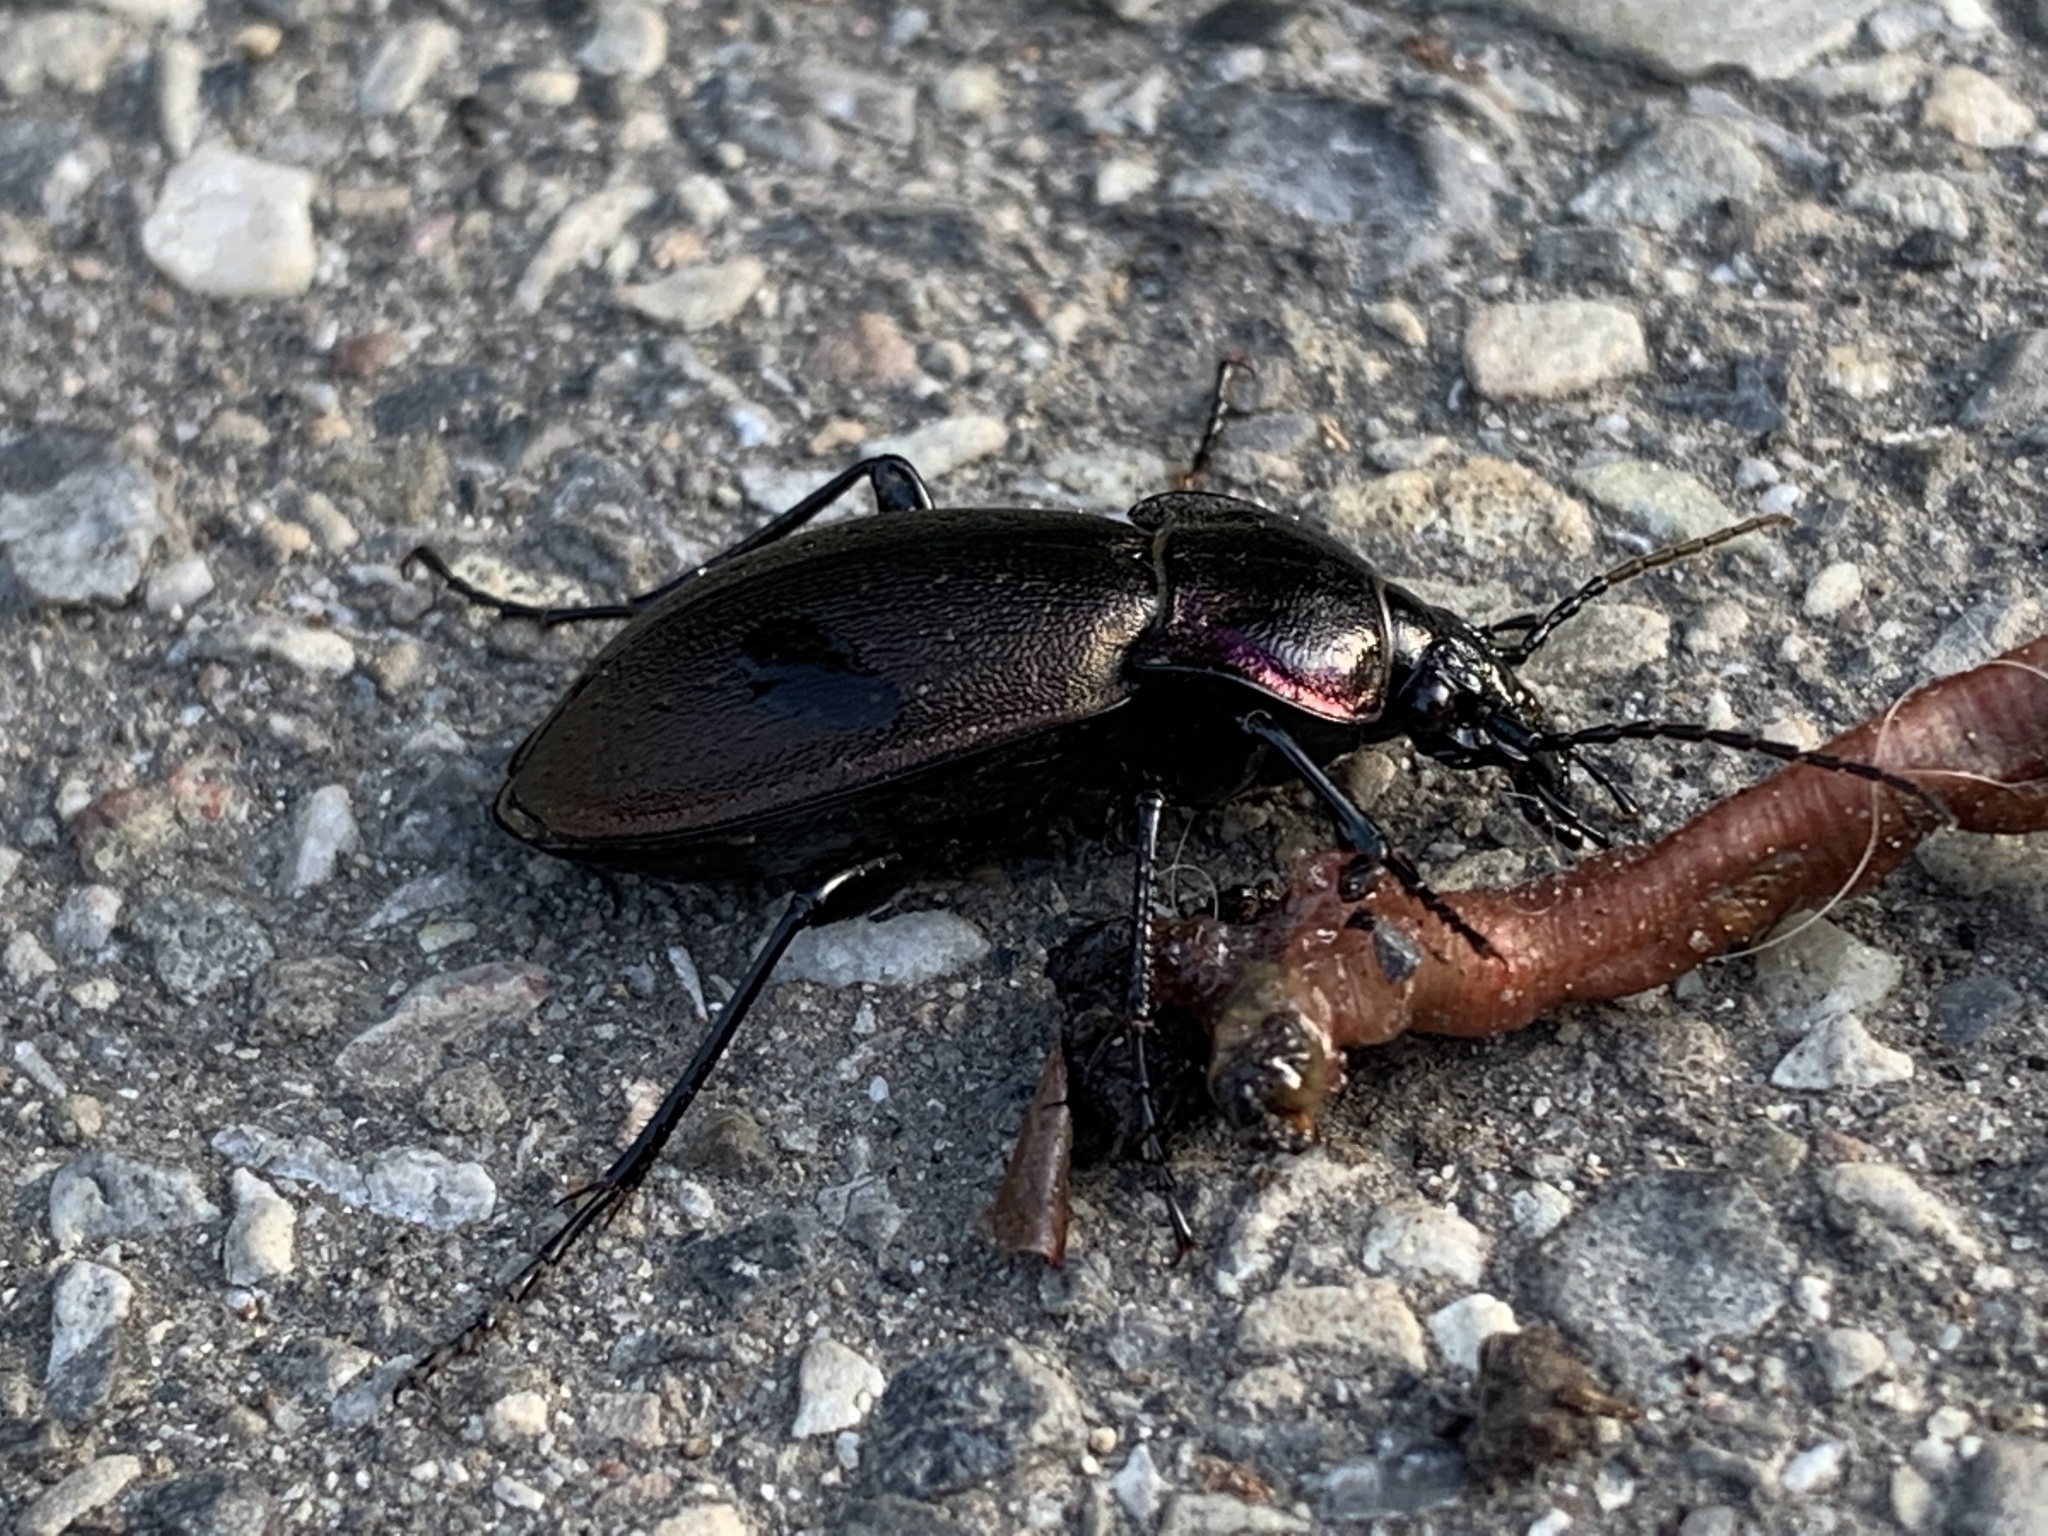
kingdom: Animalia
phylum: Arthropoda
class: Insecta
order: Coleoptera
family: Carabidae
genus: Carabus
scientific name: Carabus nemoralis
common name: European ground beetle
